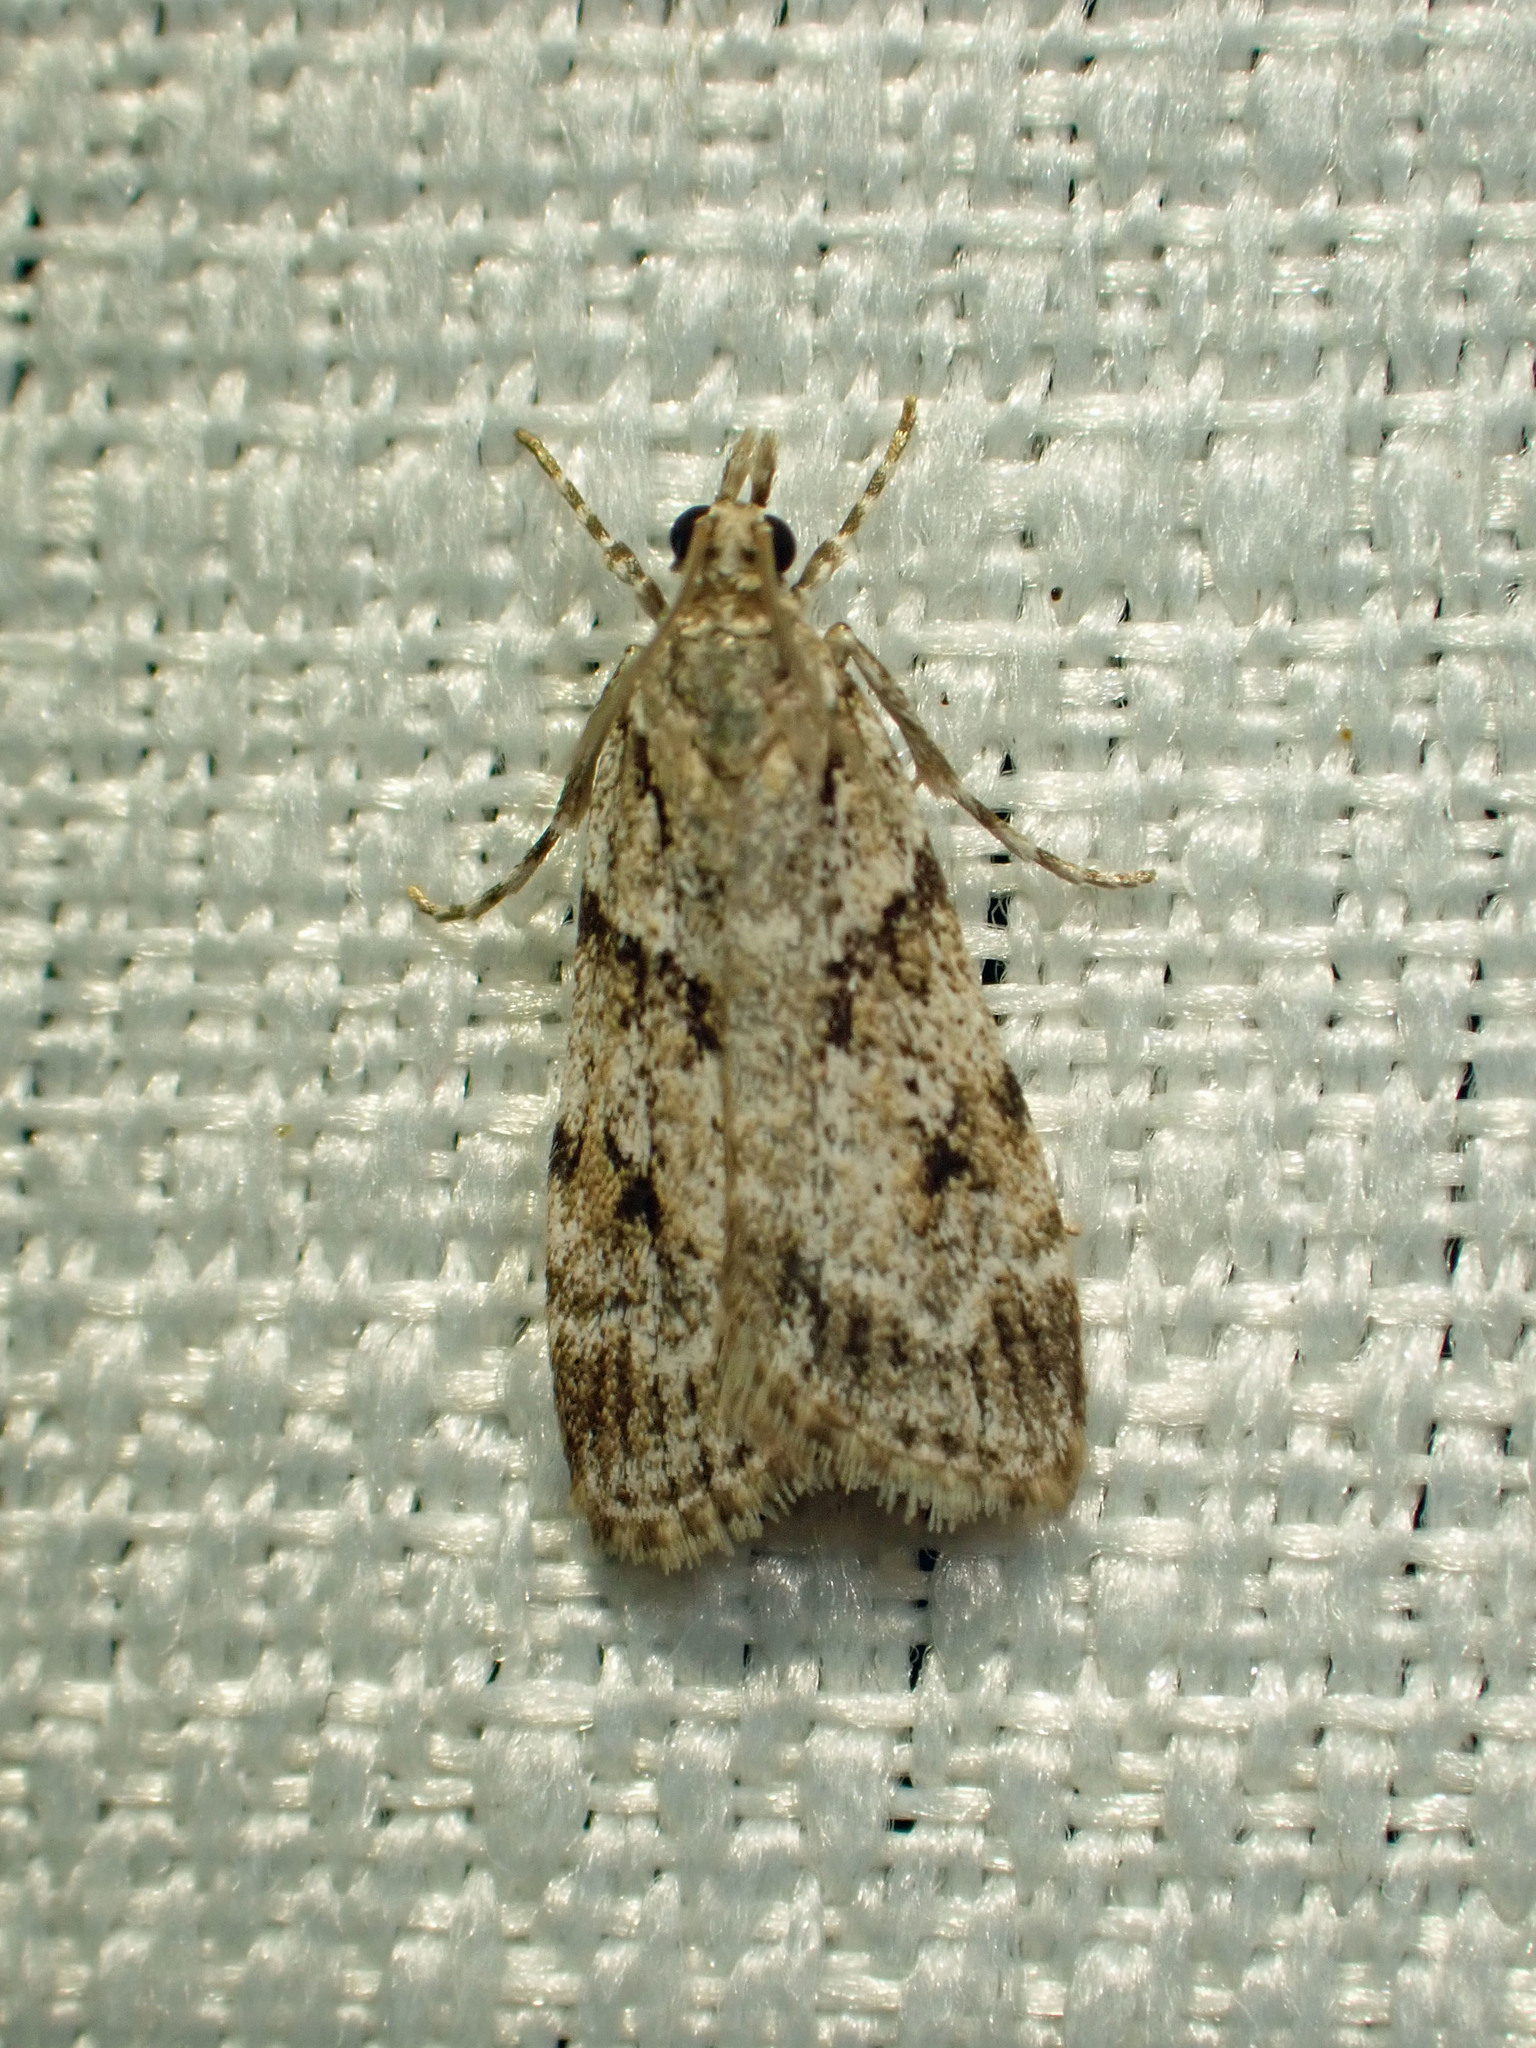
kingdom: Animalia
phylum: Arthropoda
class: Insecta
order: Lepidoptera
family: Crambidae
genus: Scoparia
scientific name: Scoparia biplagialis
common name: Double-striped scoparia moth
